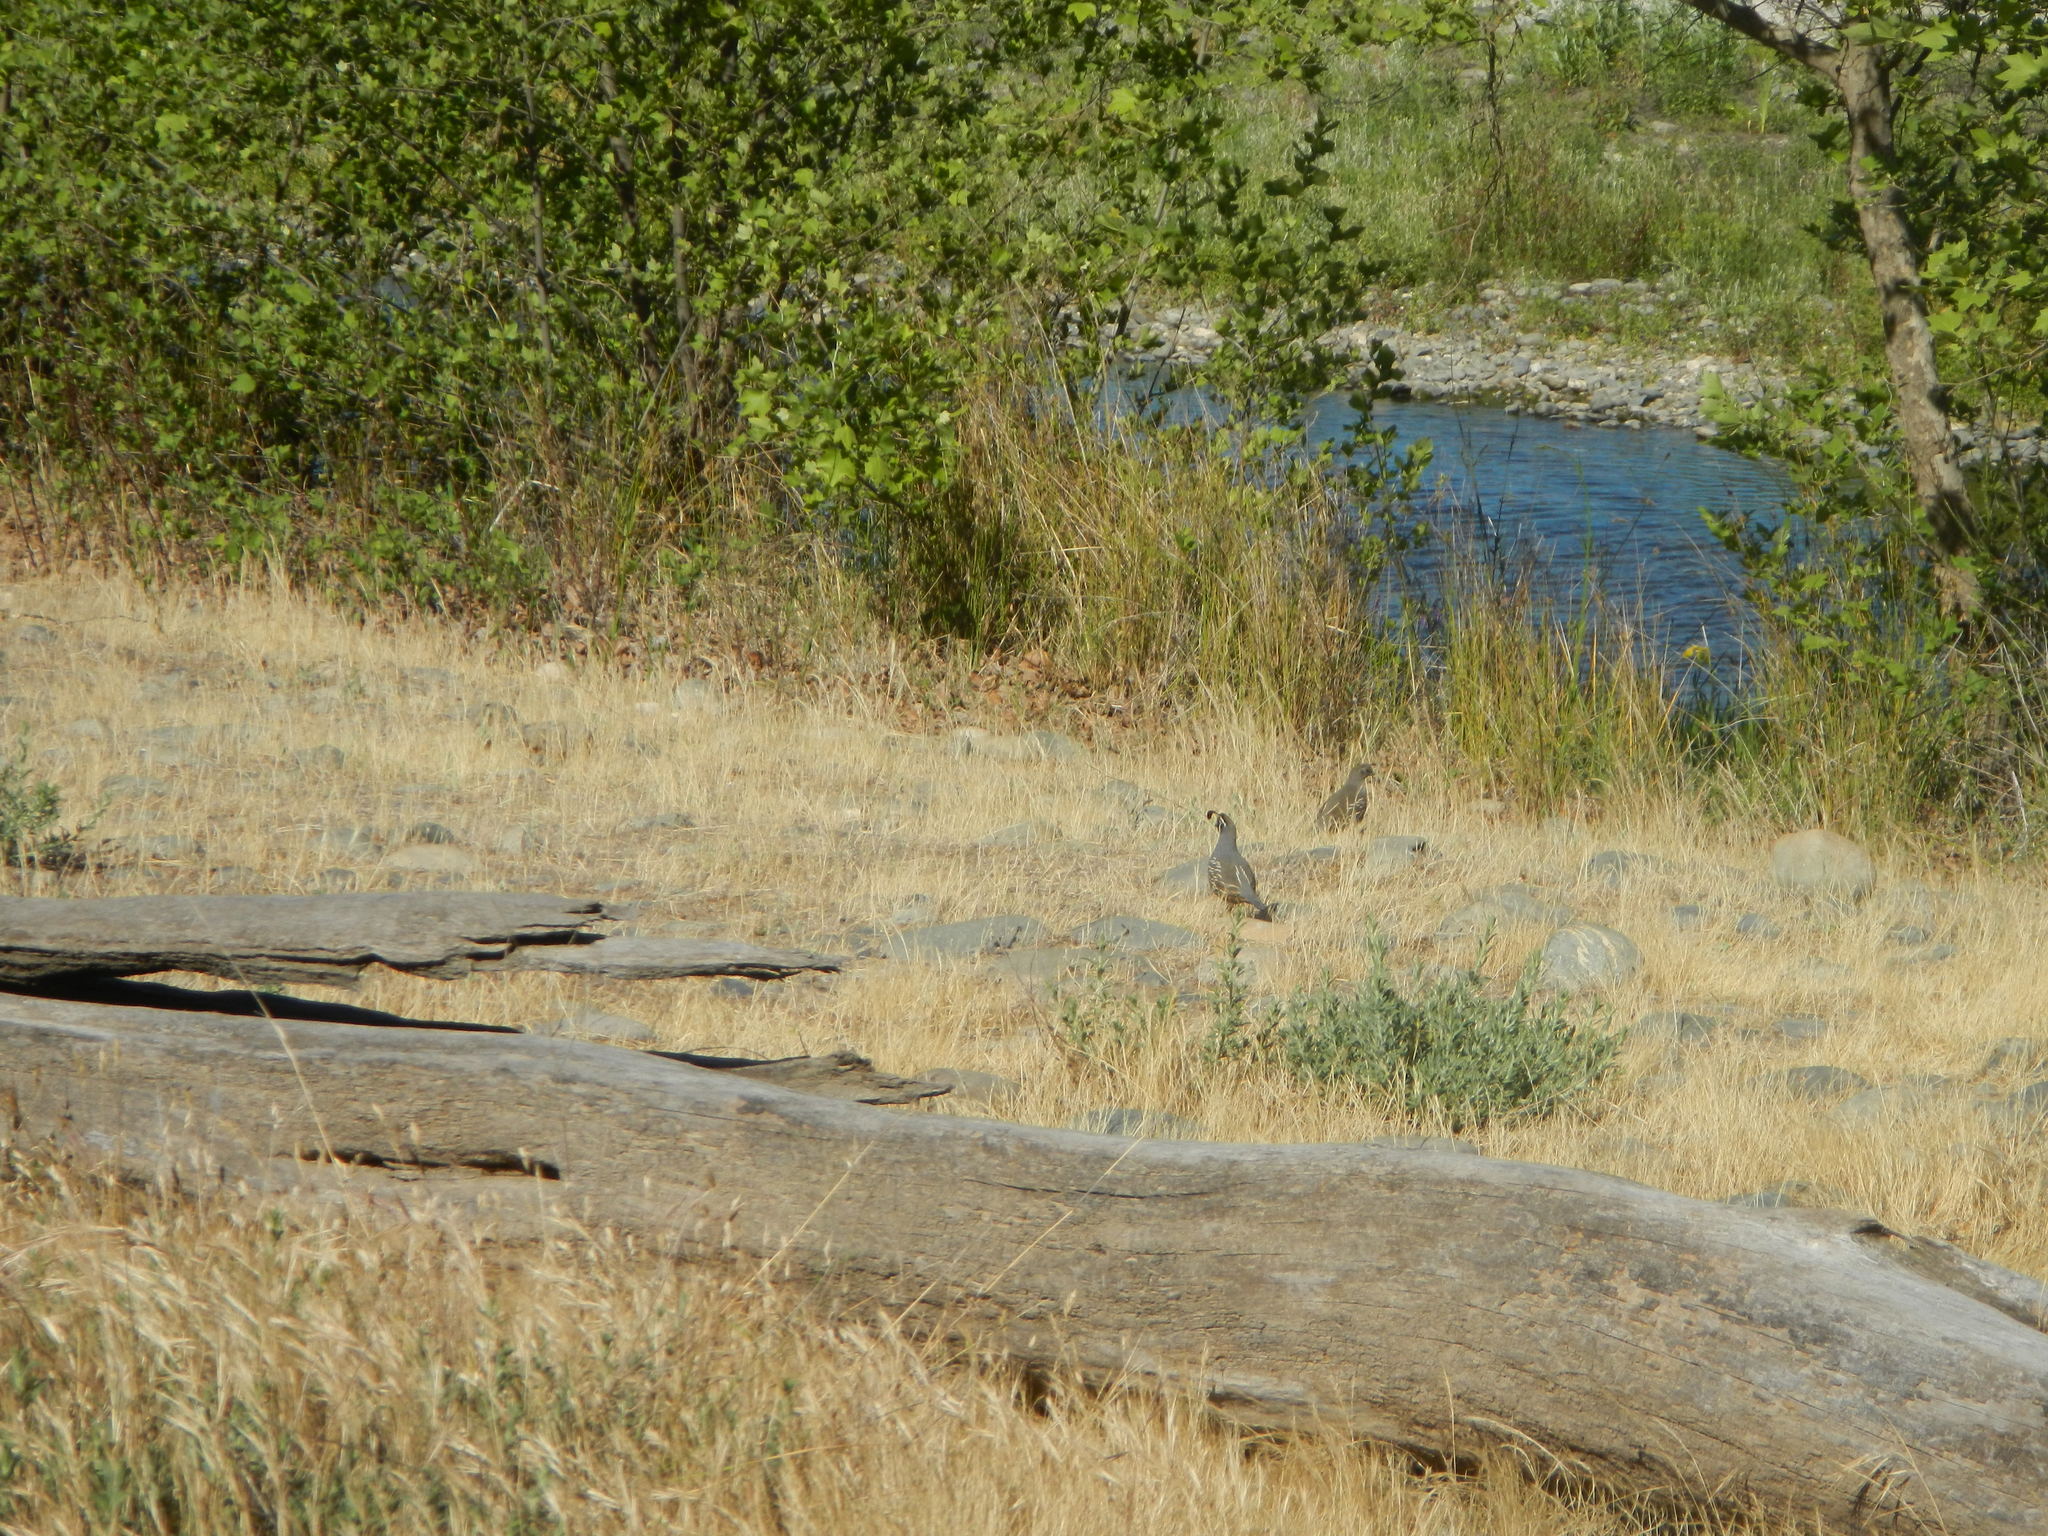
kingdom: Animalia
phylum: Chordata
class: Aves
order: Galliformes
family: Odontophoridae
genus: Callipepla
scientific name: Callipepla californica
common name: California quail
